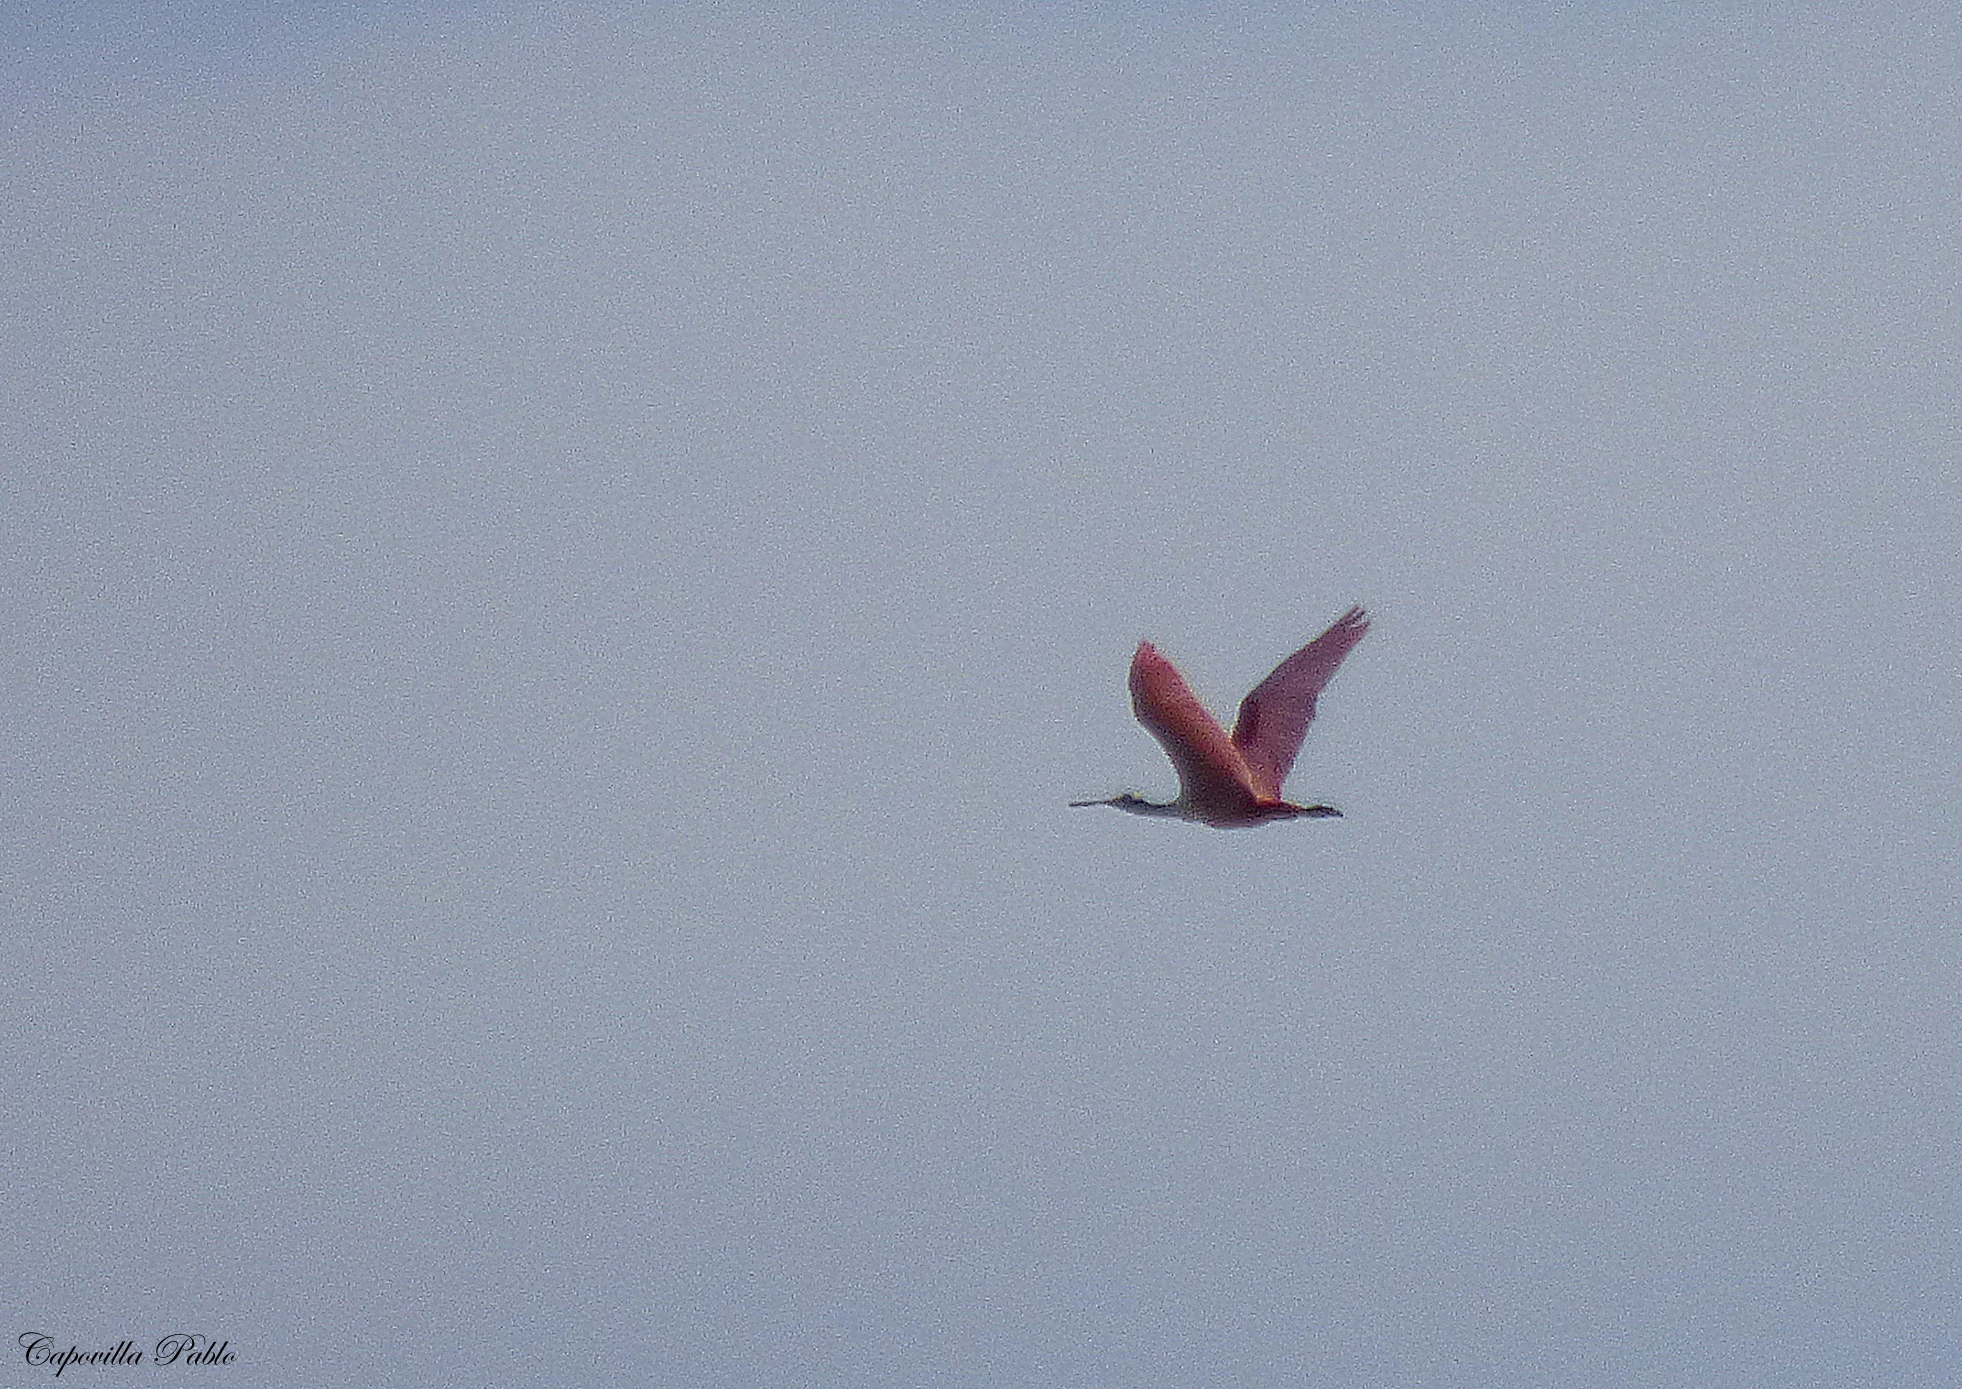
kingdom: Animalia
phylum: Chordata
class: Aves
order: Pelecaniformes
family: Threskiornithidae
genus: Platalea
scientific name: Platalea ajaja
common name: Roseate spoonbill
